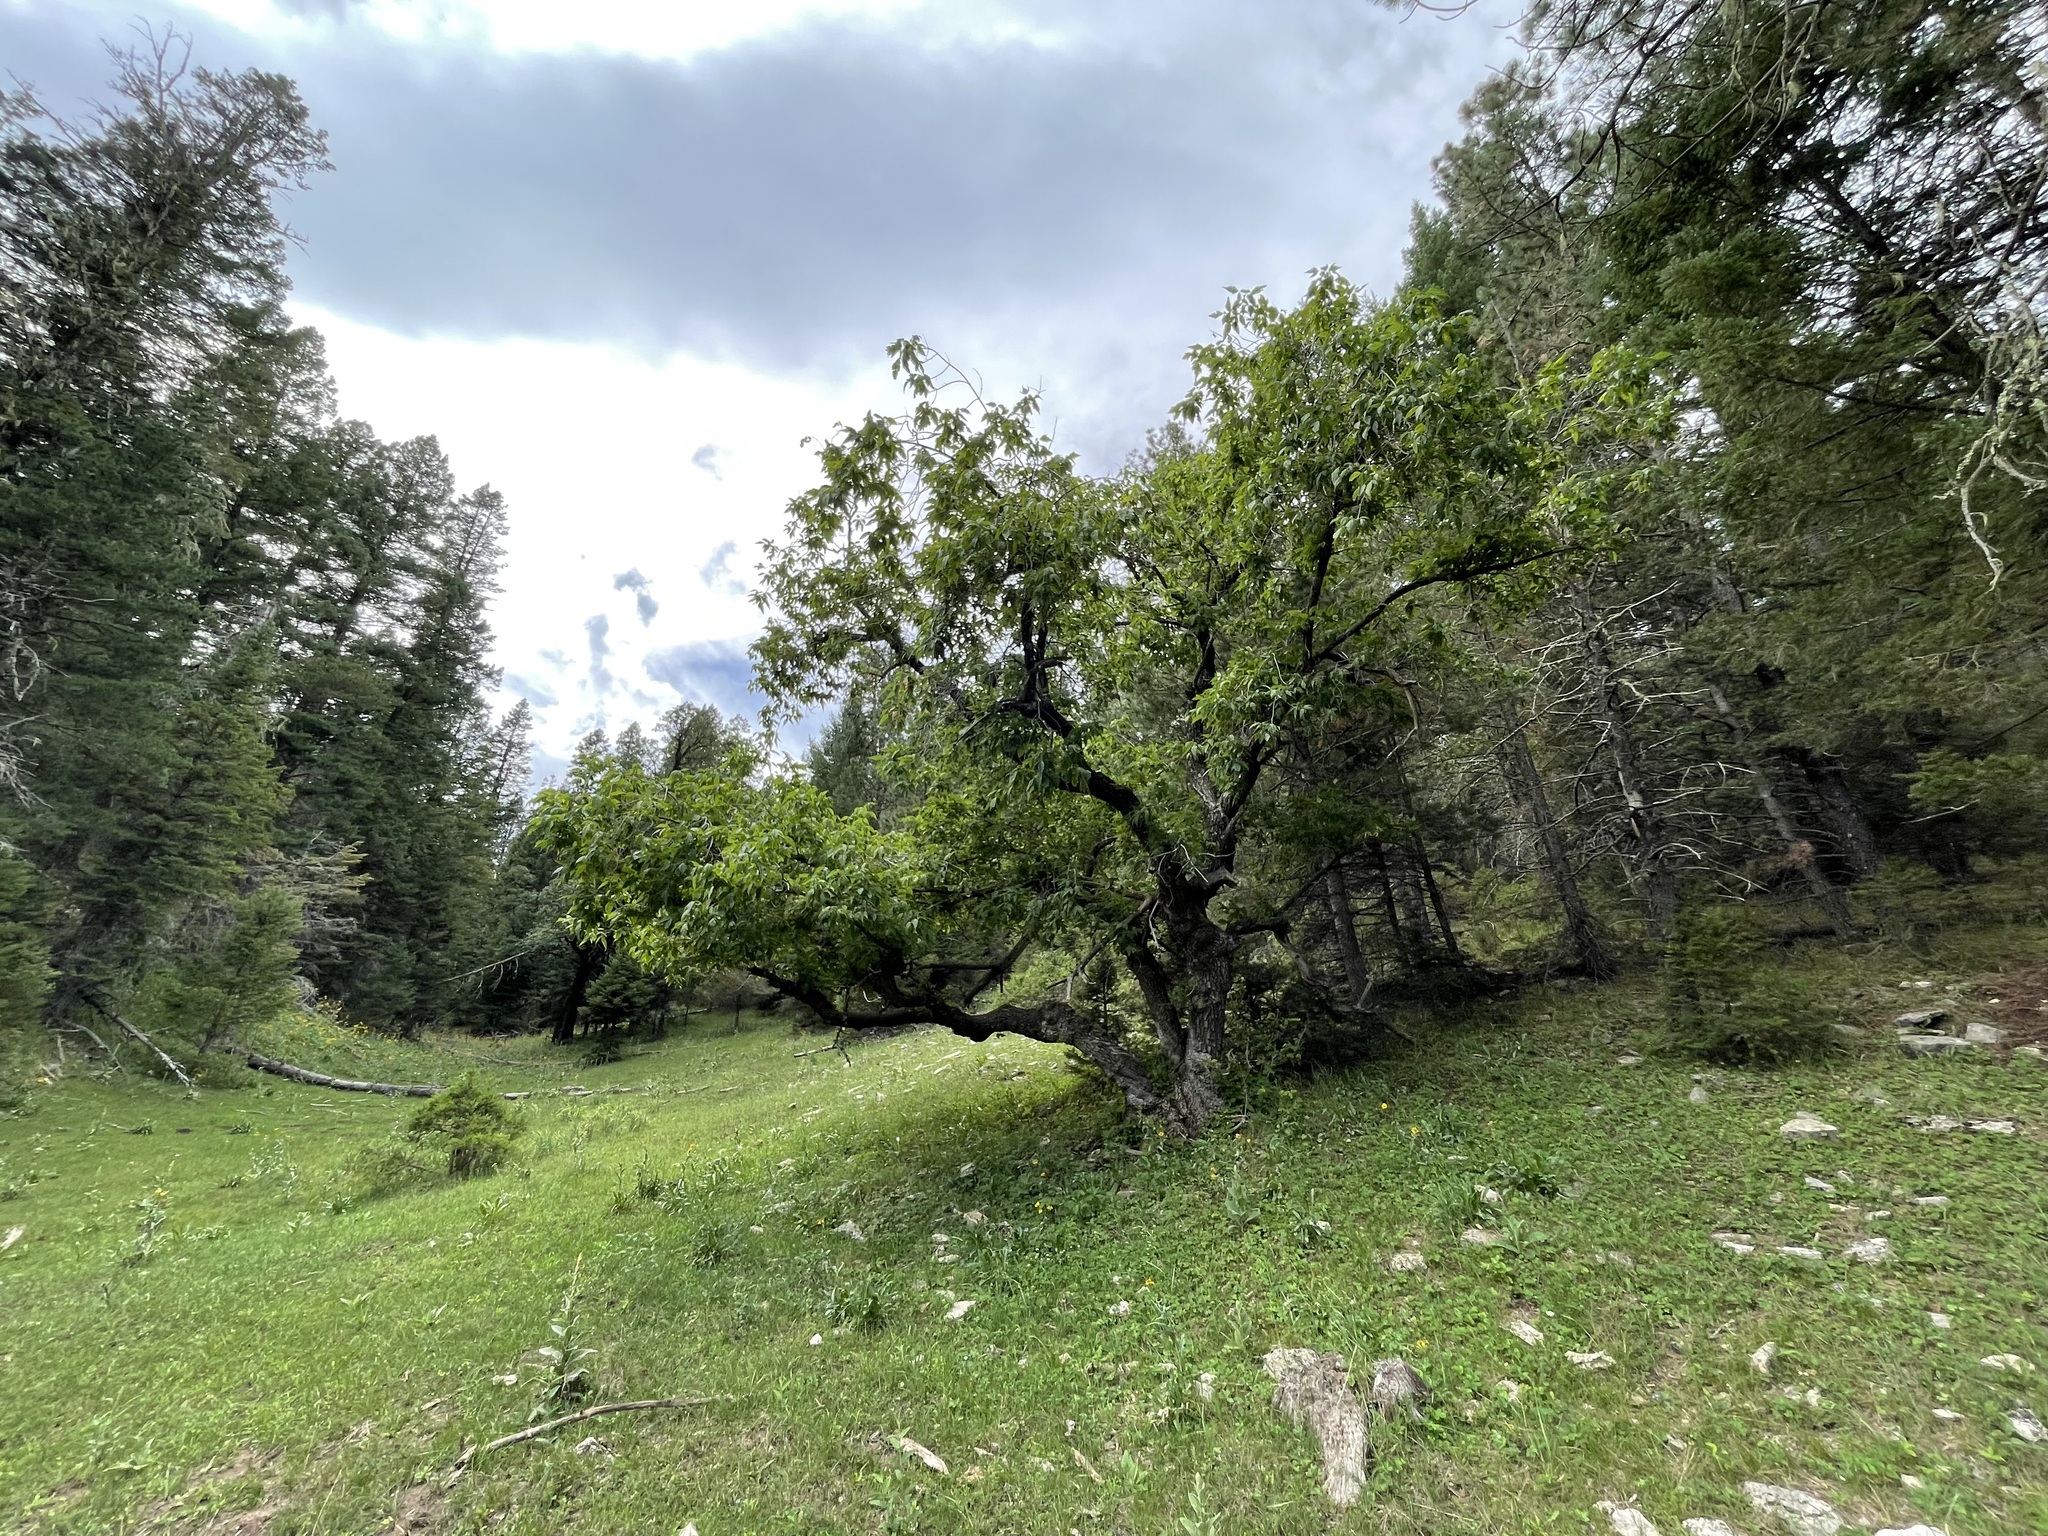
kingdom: Plantae
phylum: Tracheophyta
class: Magnoliopsida
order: Sapindales
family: Sapindaceae
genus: Acer
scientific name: Acer negundo
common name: Ashleaf maple
